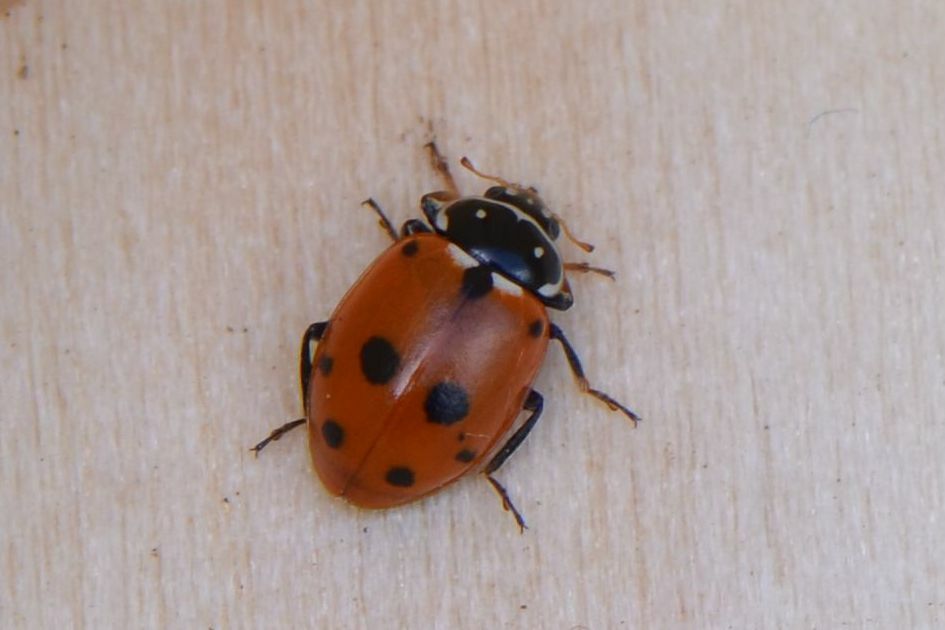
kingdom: Animalia
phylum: Arthropoda
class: Insecta
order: Coleoptera
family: Coccinellidae
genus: Hippodamia
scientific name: Hippodamia variegata
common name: Ladybird beetle
